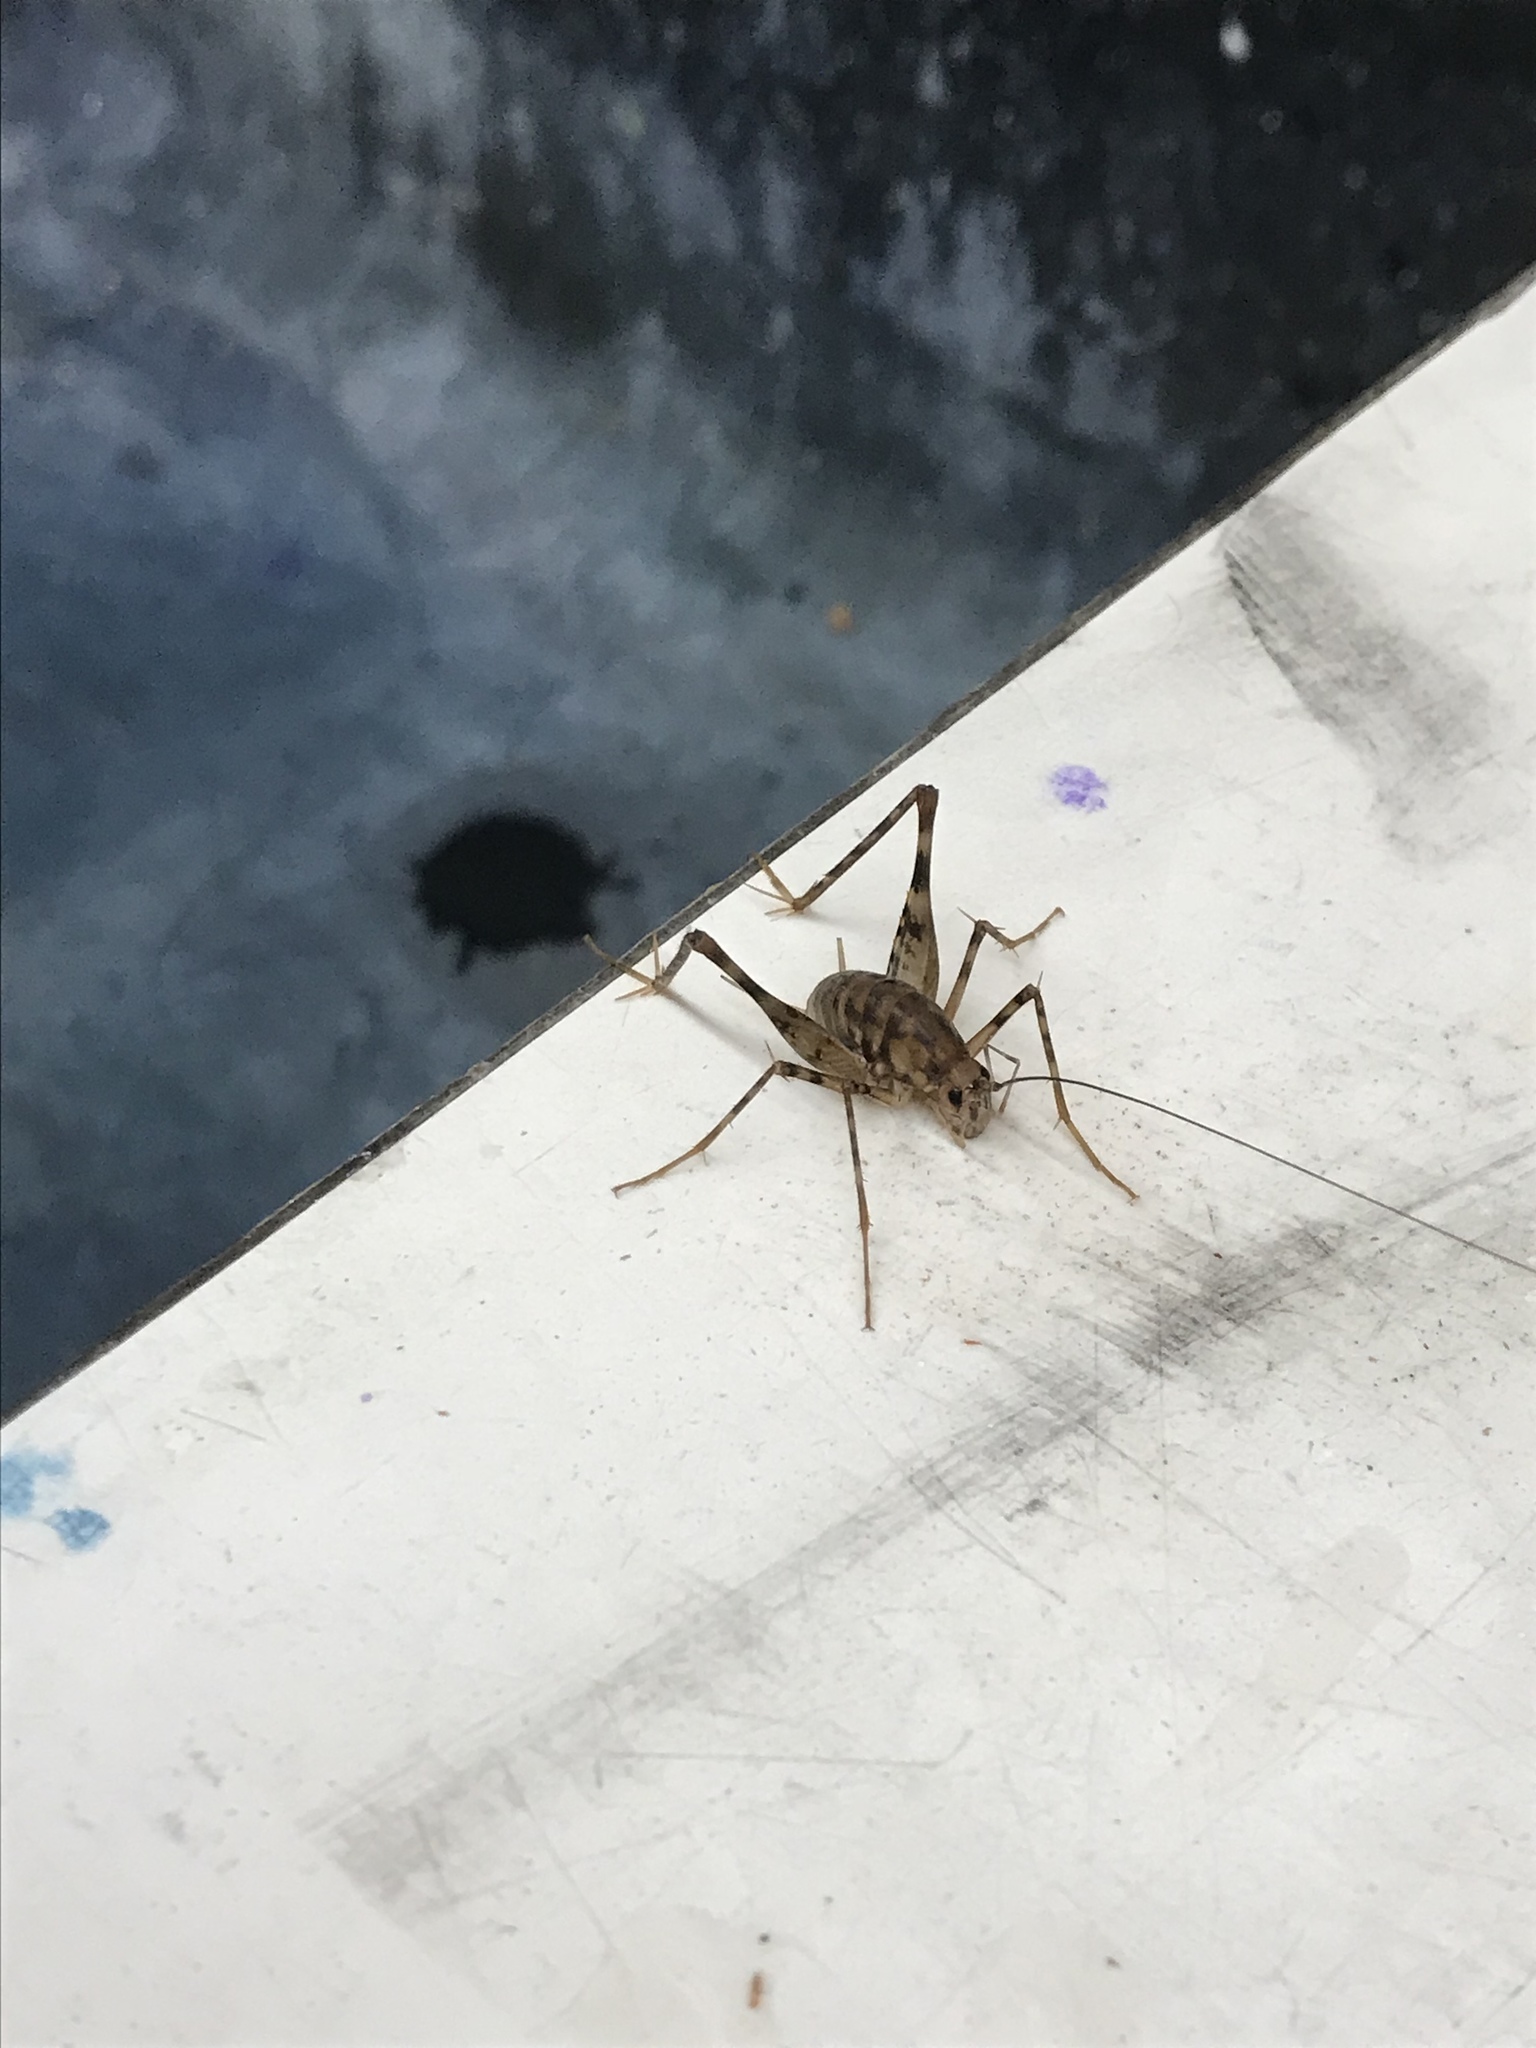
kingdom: Animalia
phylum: Arthropoda
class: Insecta
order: Orthoptera
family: Rhaphidophoridae
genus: Tachycines
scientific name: Tachycines asynamorus
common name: Greenhouse camel cricket
